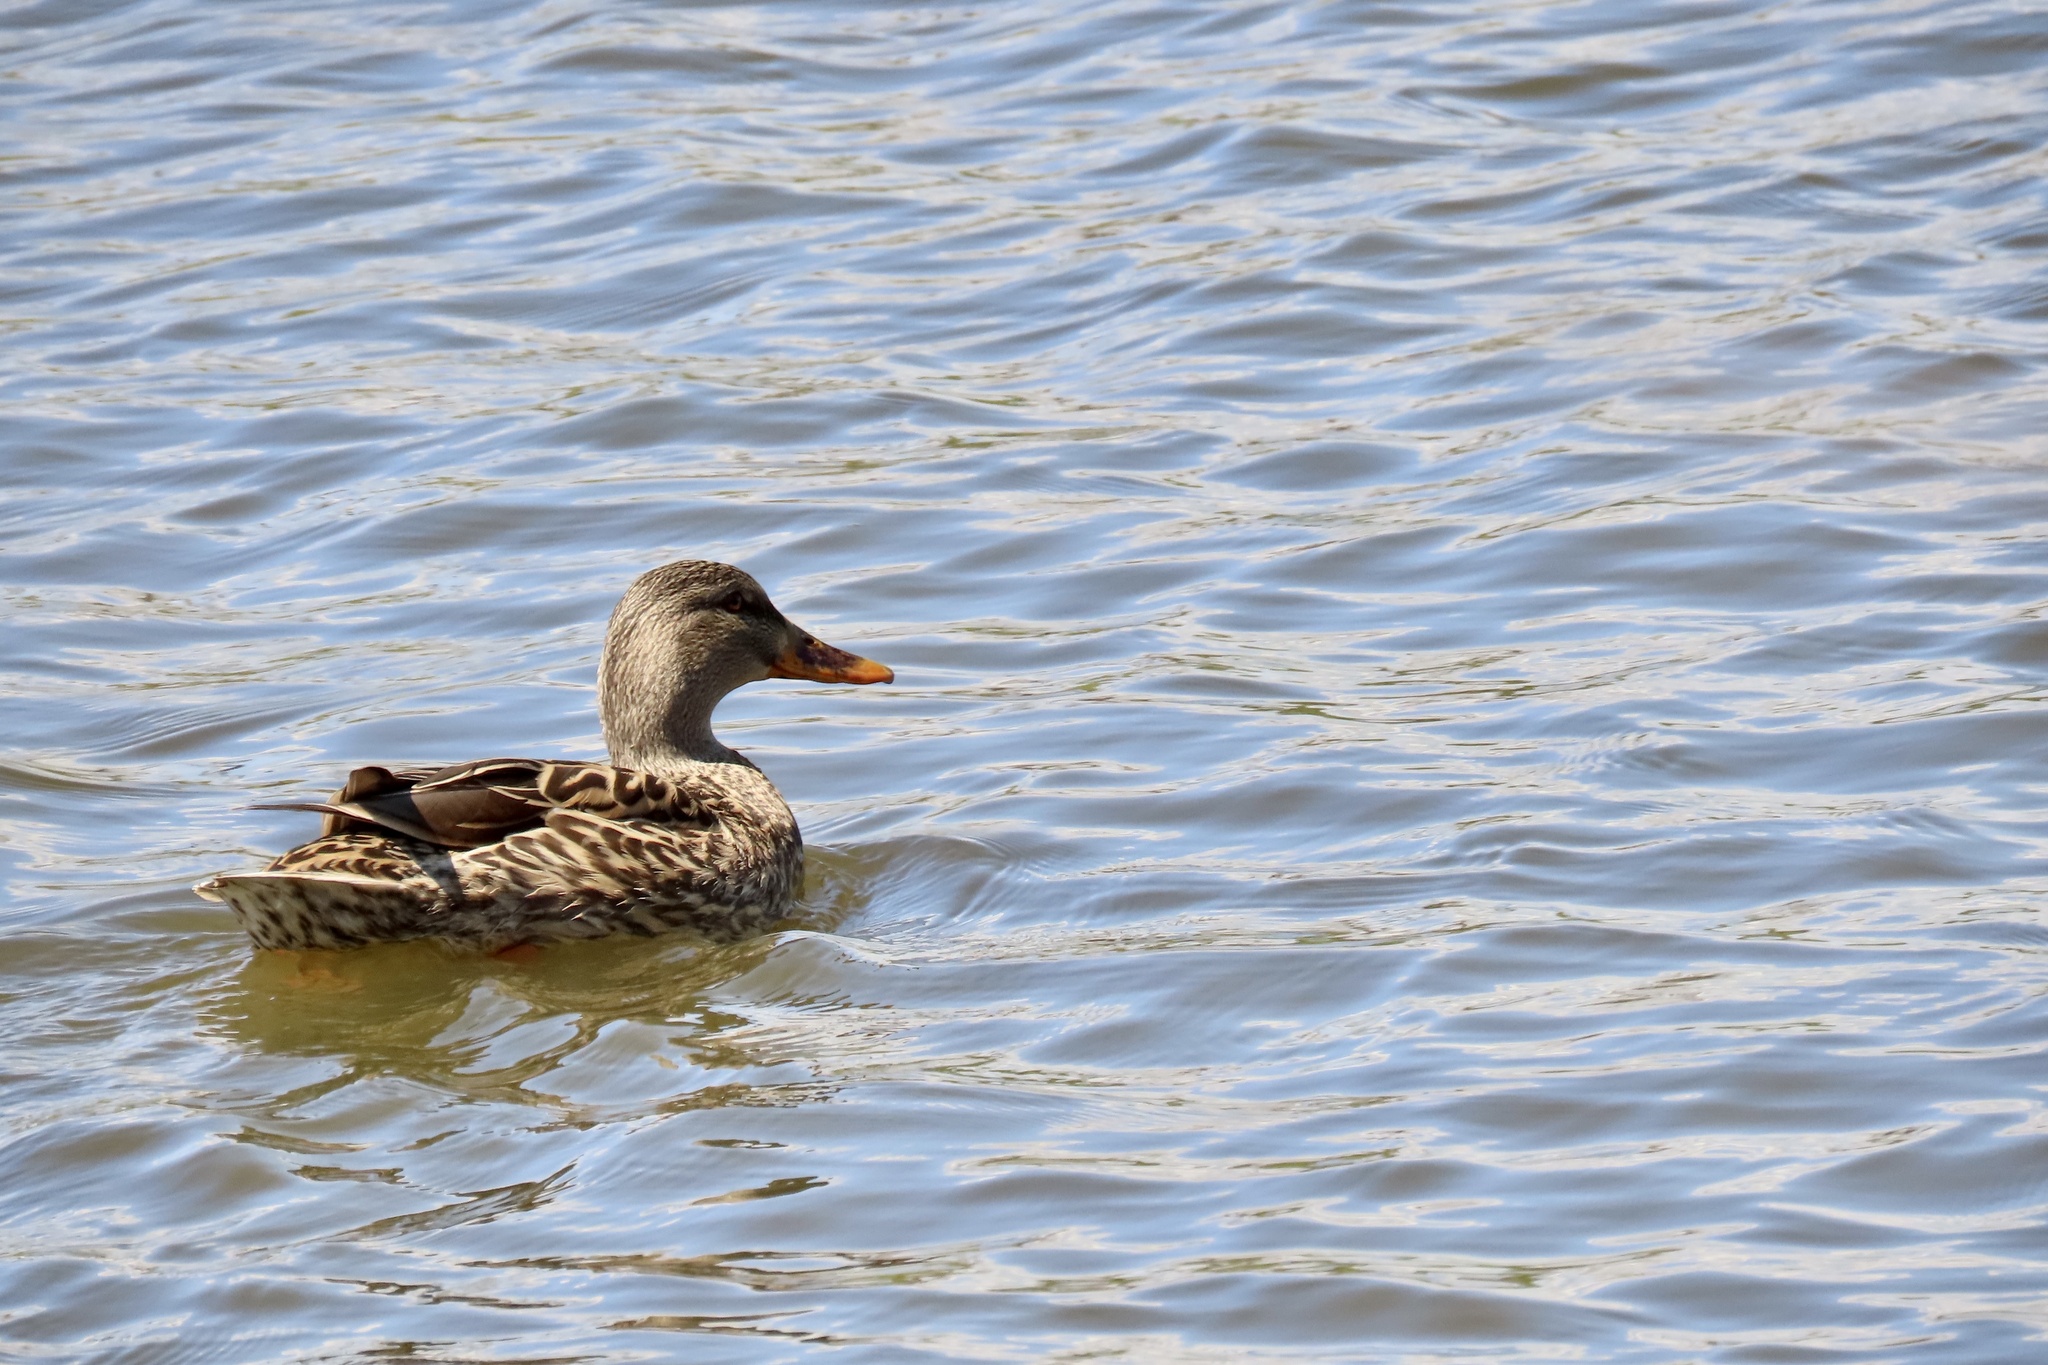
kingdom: Animalia
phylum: Chordata
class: Aves
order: Anseriformes
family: Anatidae
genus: Anas
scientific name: Anas platyrhynchos
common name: Mallard
